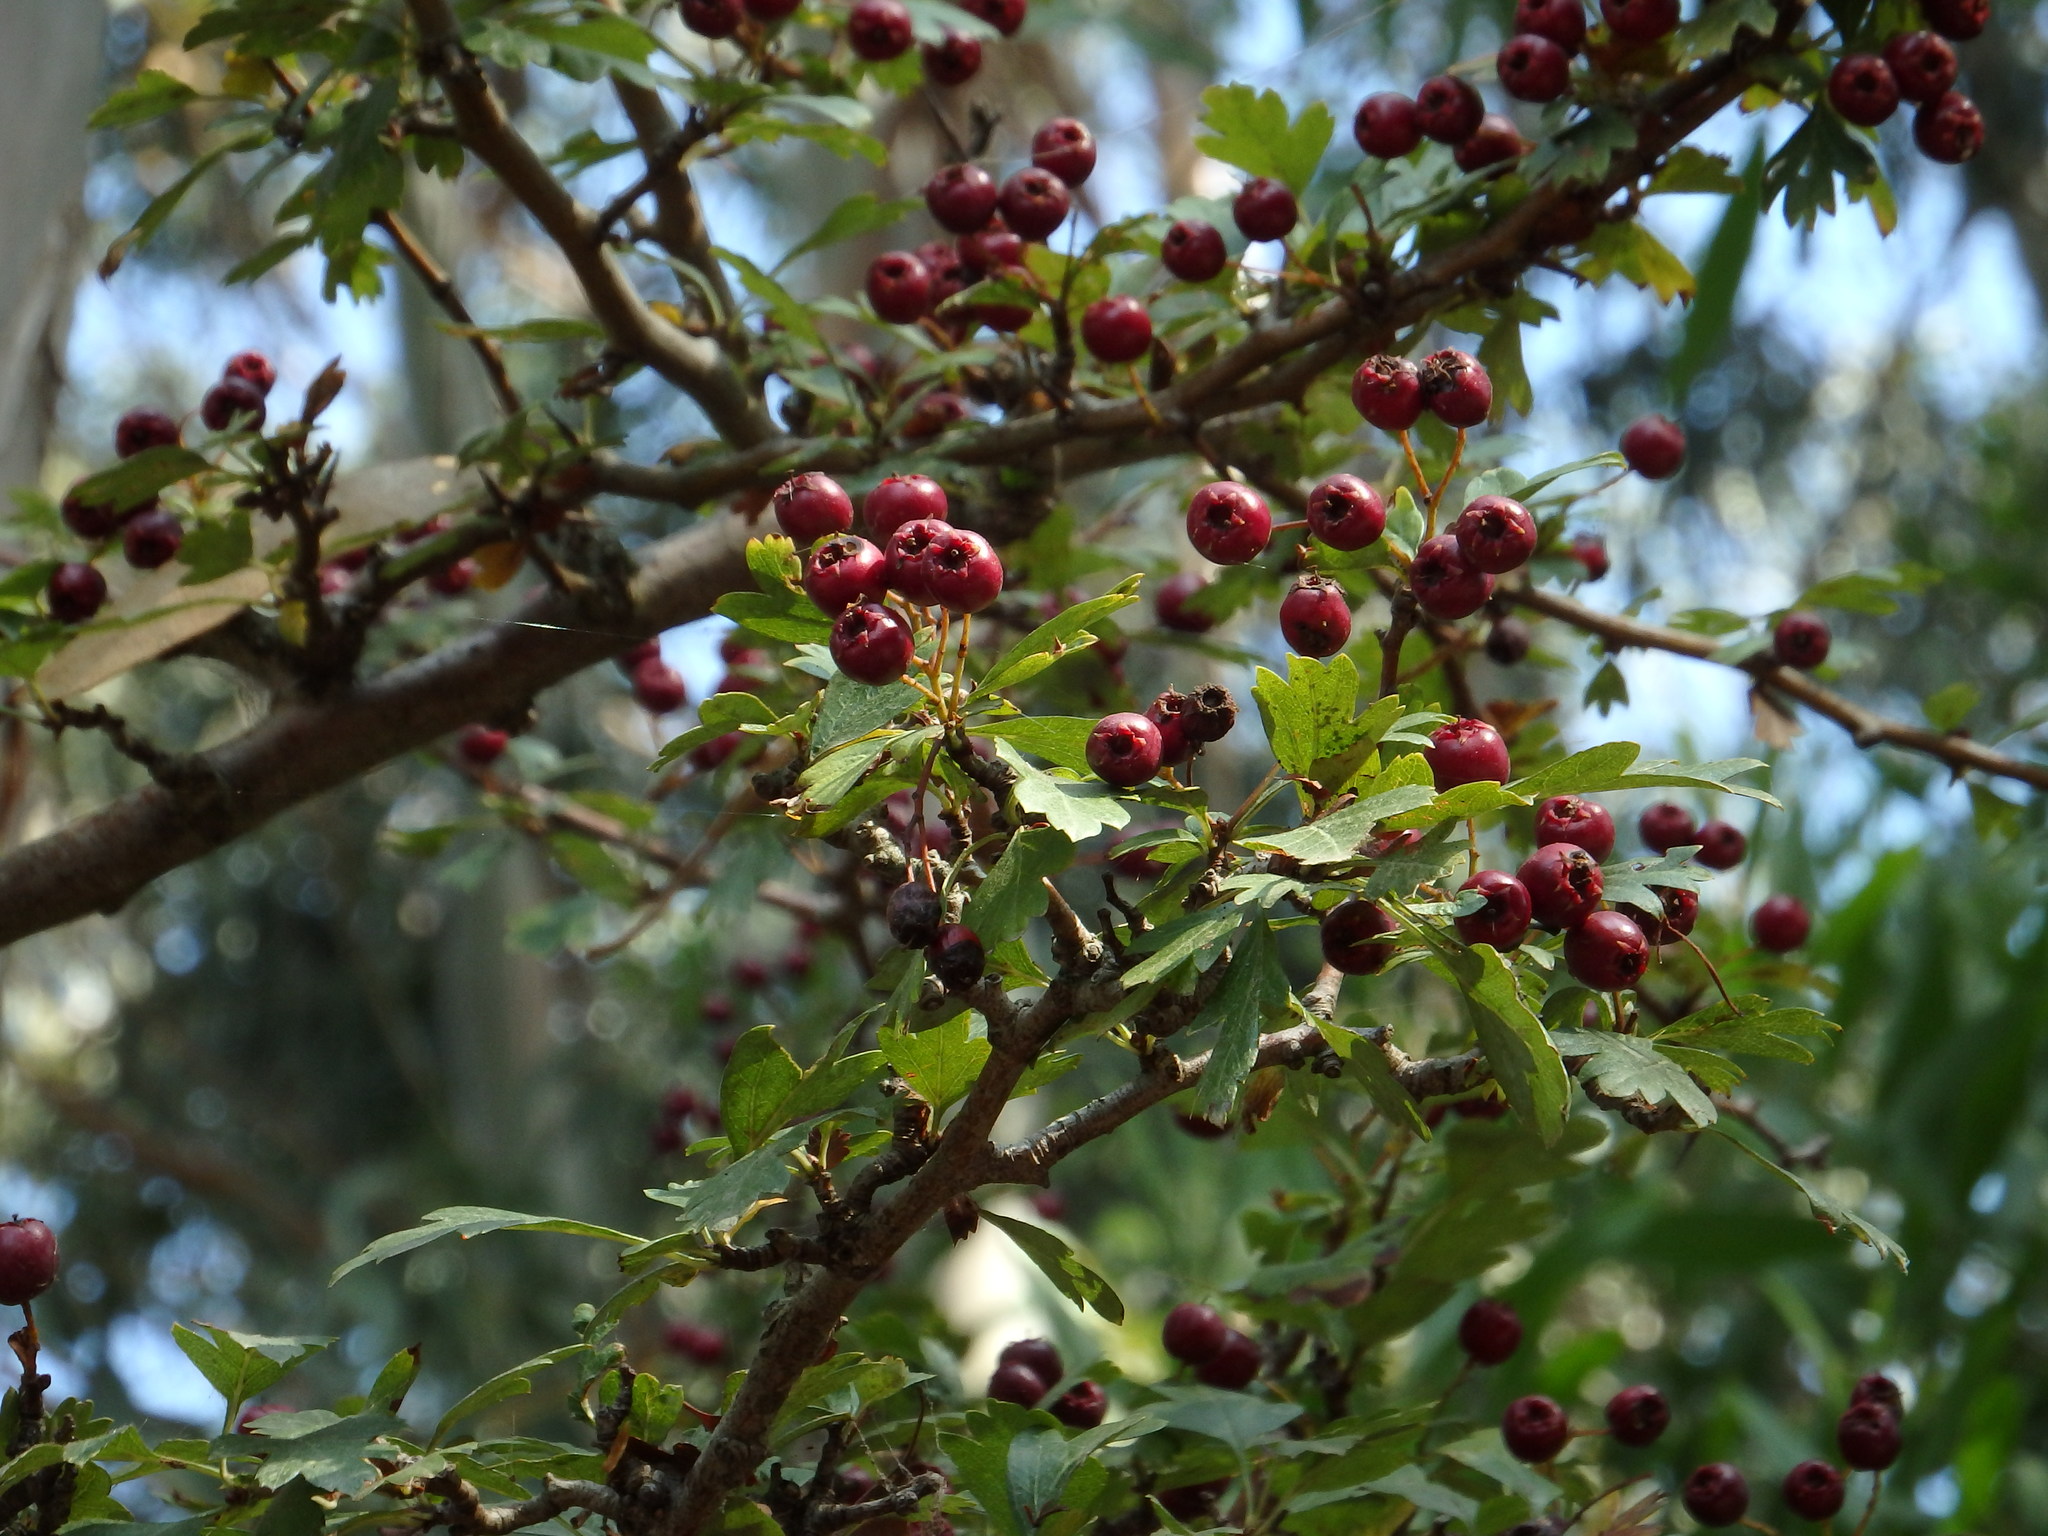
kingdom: Plantae
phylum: Tracheophyta
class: Magnoliopsida
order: Rosales
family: Rosaceae
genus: Crataegus
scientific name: Crataegus monogyna
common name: Hawthorn
